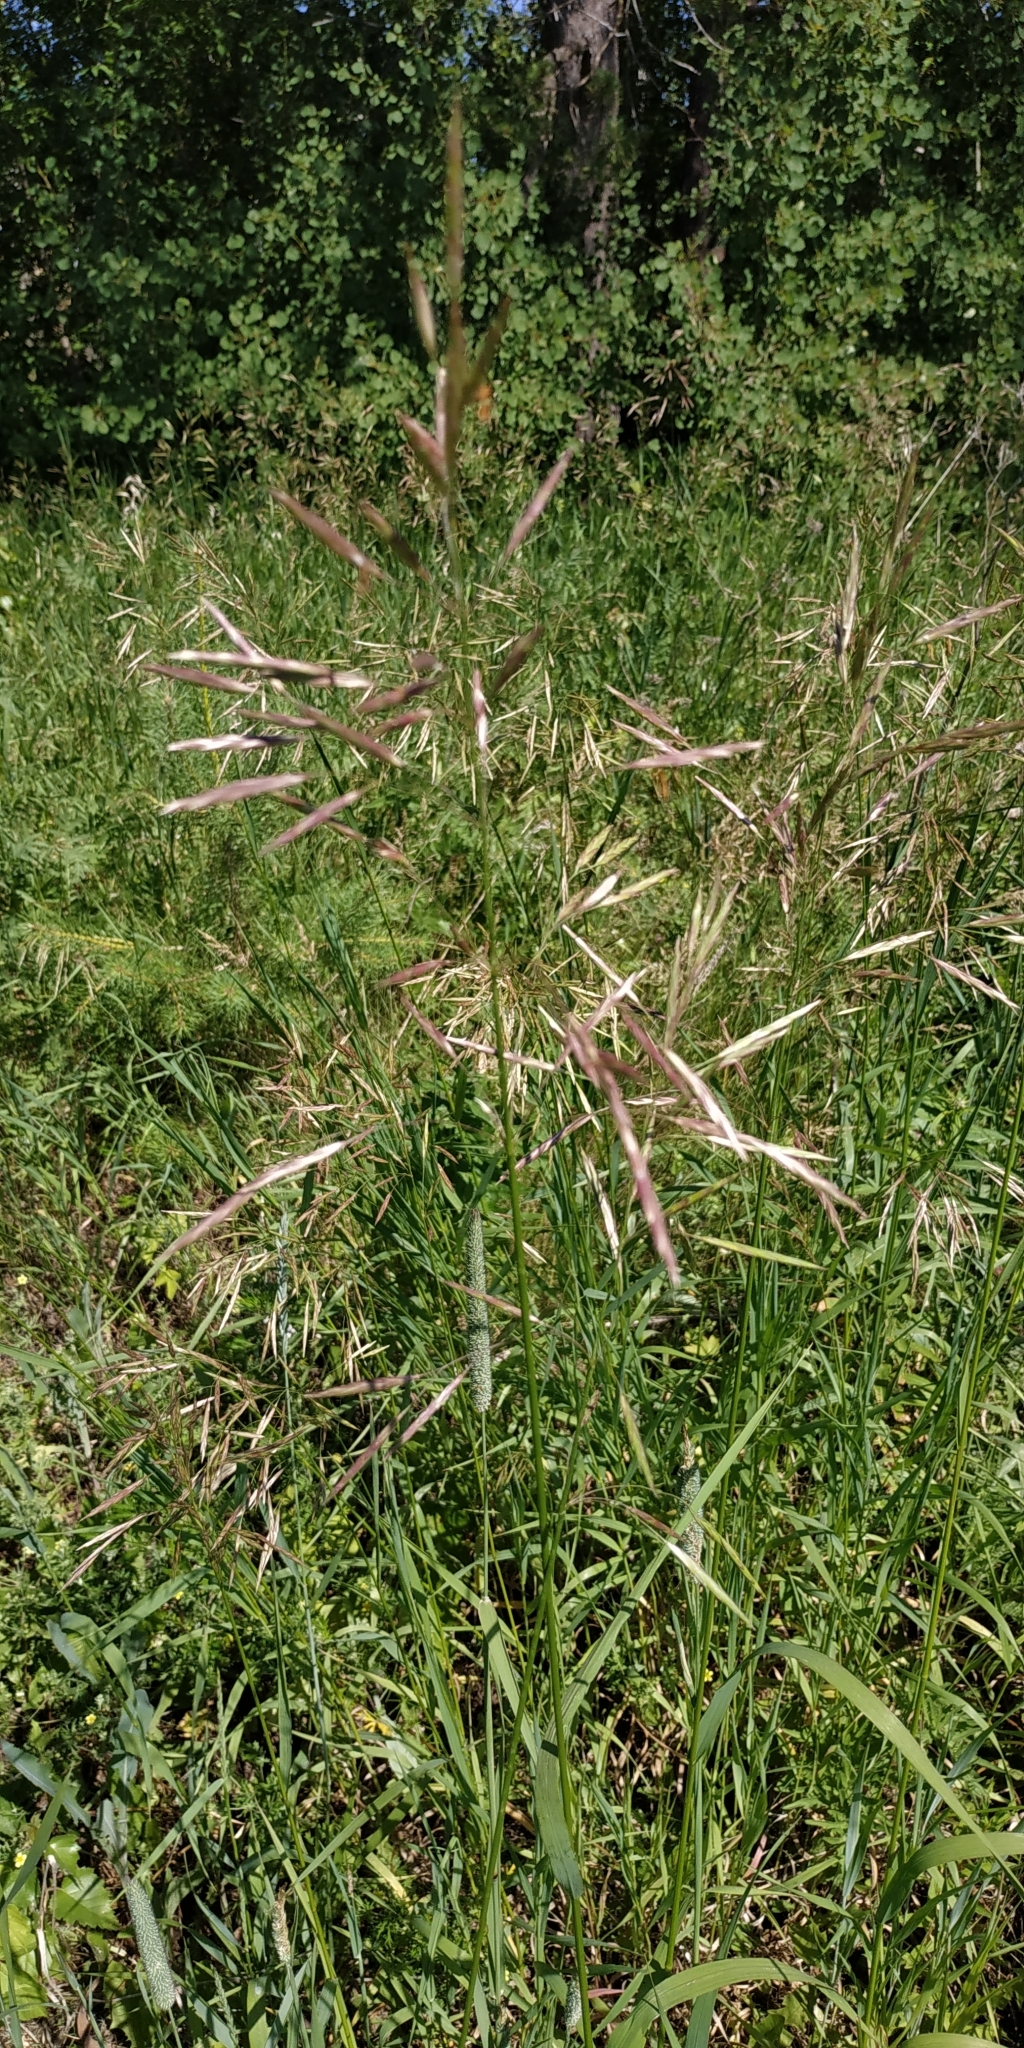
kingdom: Plantae
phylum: Tracheophyta
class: Liliopsida
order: Poales
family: Poaceae
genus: Bromus
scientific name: Bromus inermis
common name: Smooth brome
